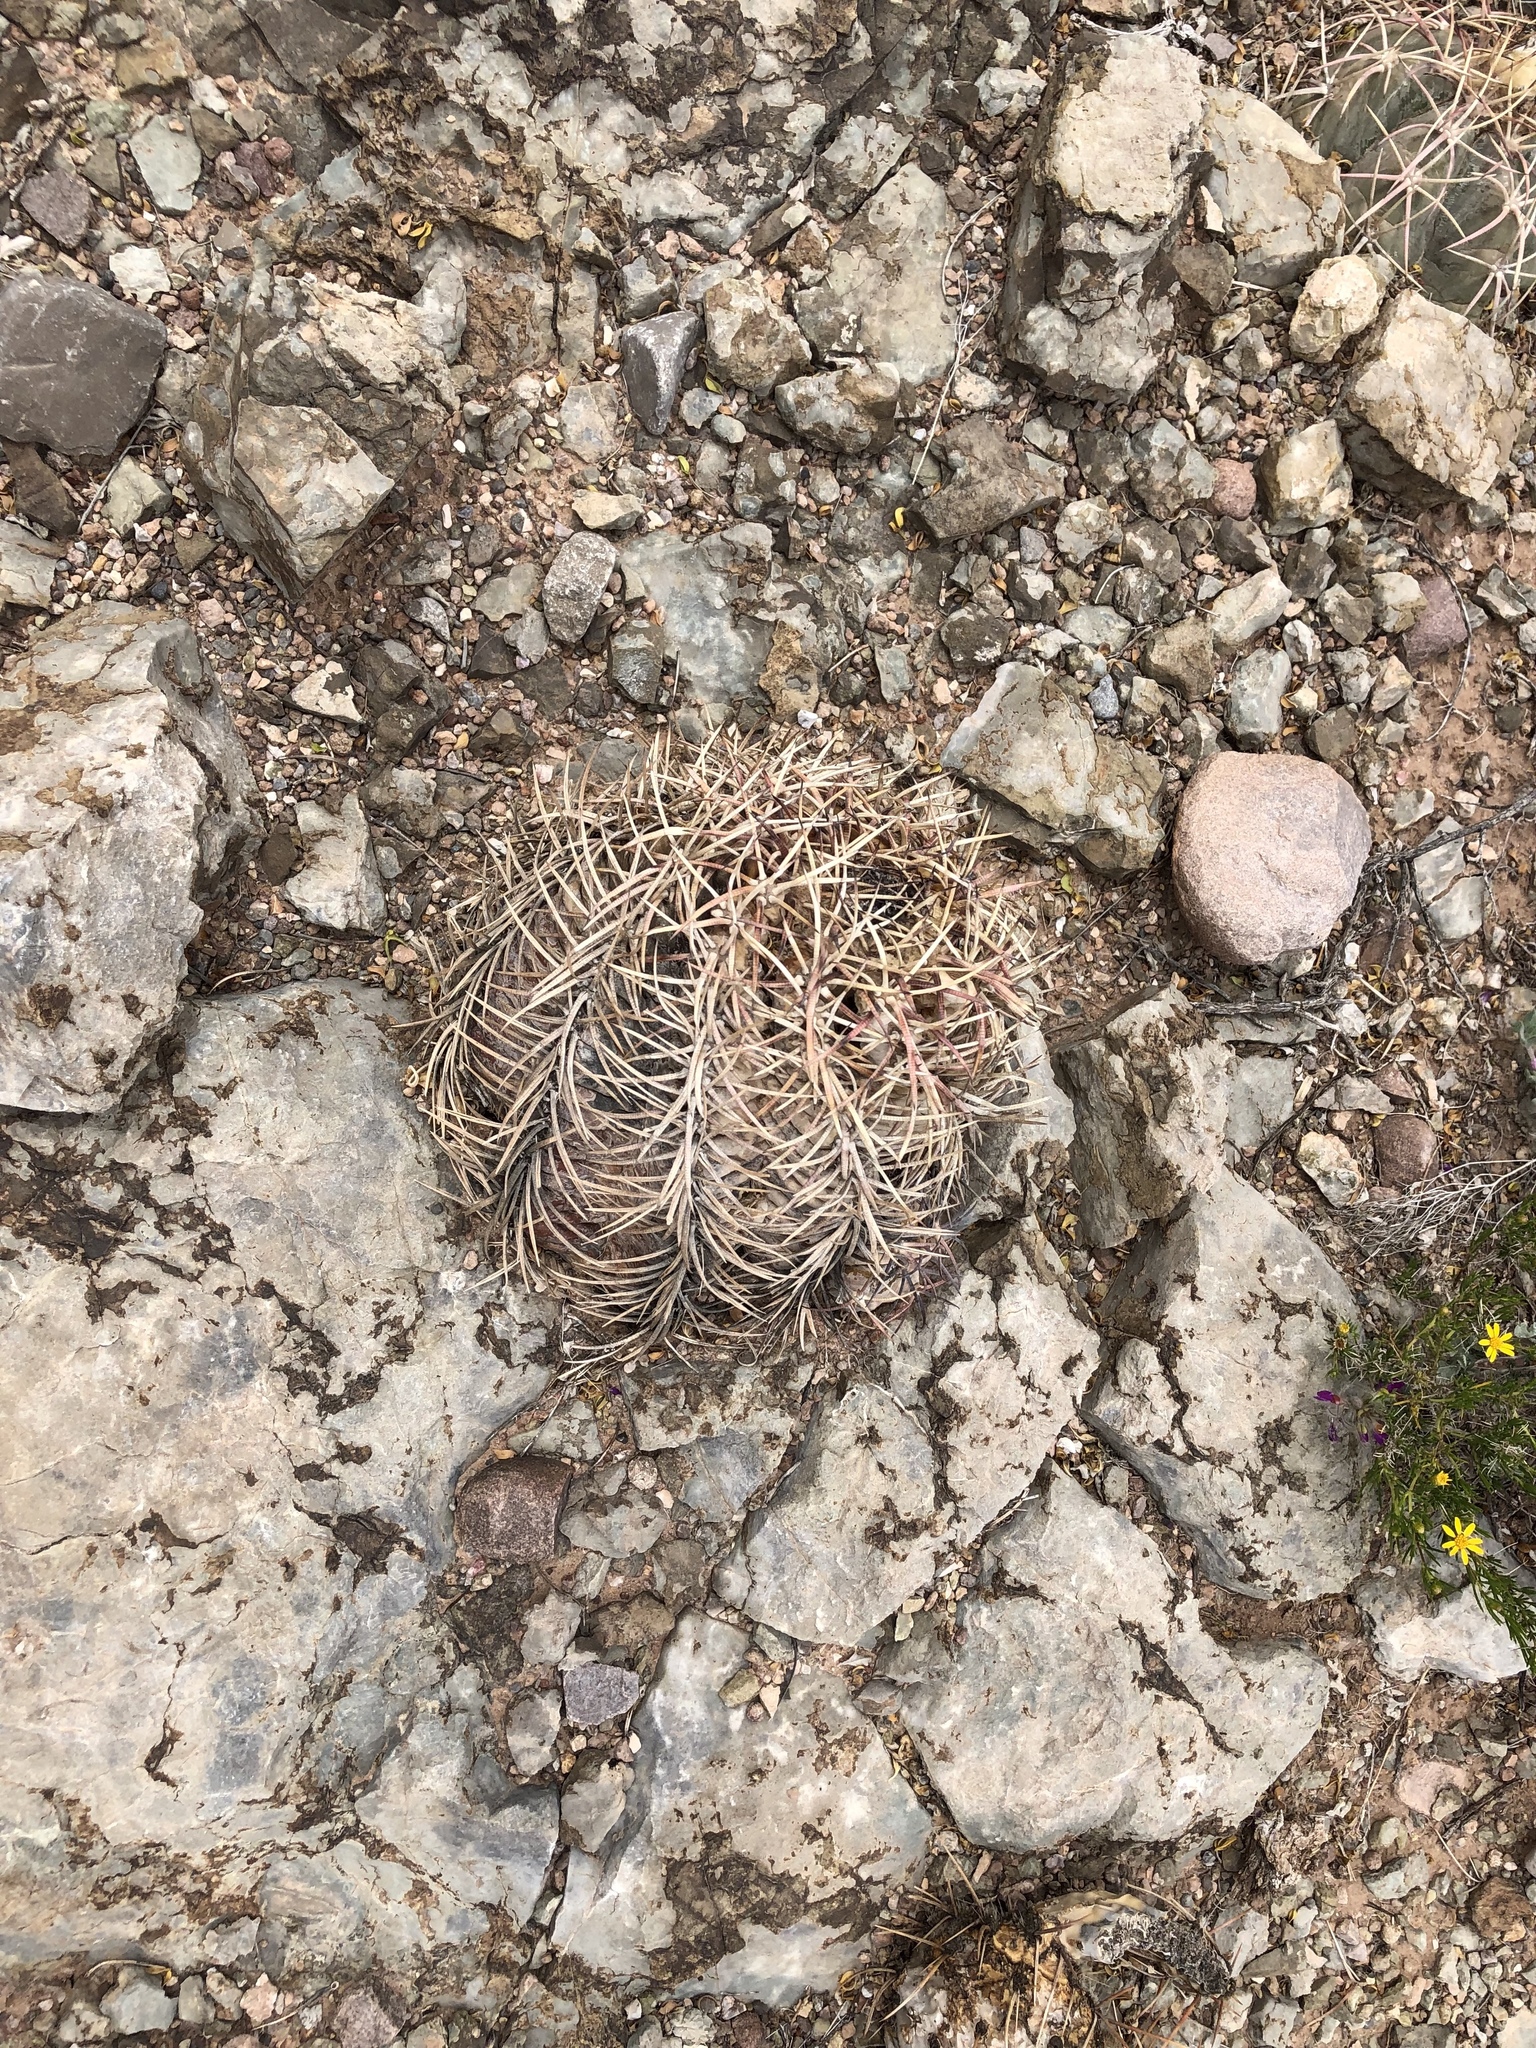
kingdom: Plantae
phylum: Tracheophyta
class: Magnoliopsida
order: Caryophyllales
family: Cactaceae
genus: Echinocactus
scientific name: Echinocactus horizonthalonius
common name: Devilshead
